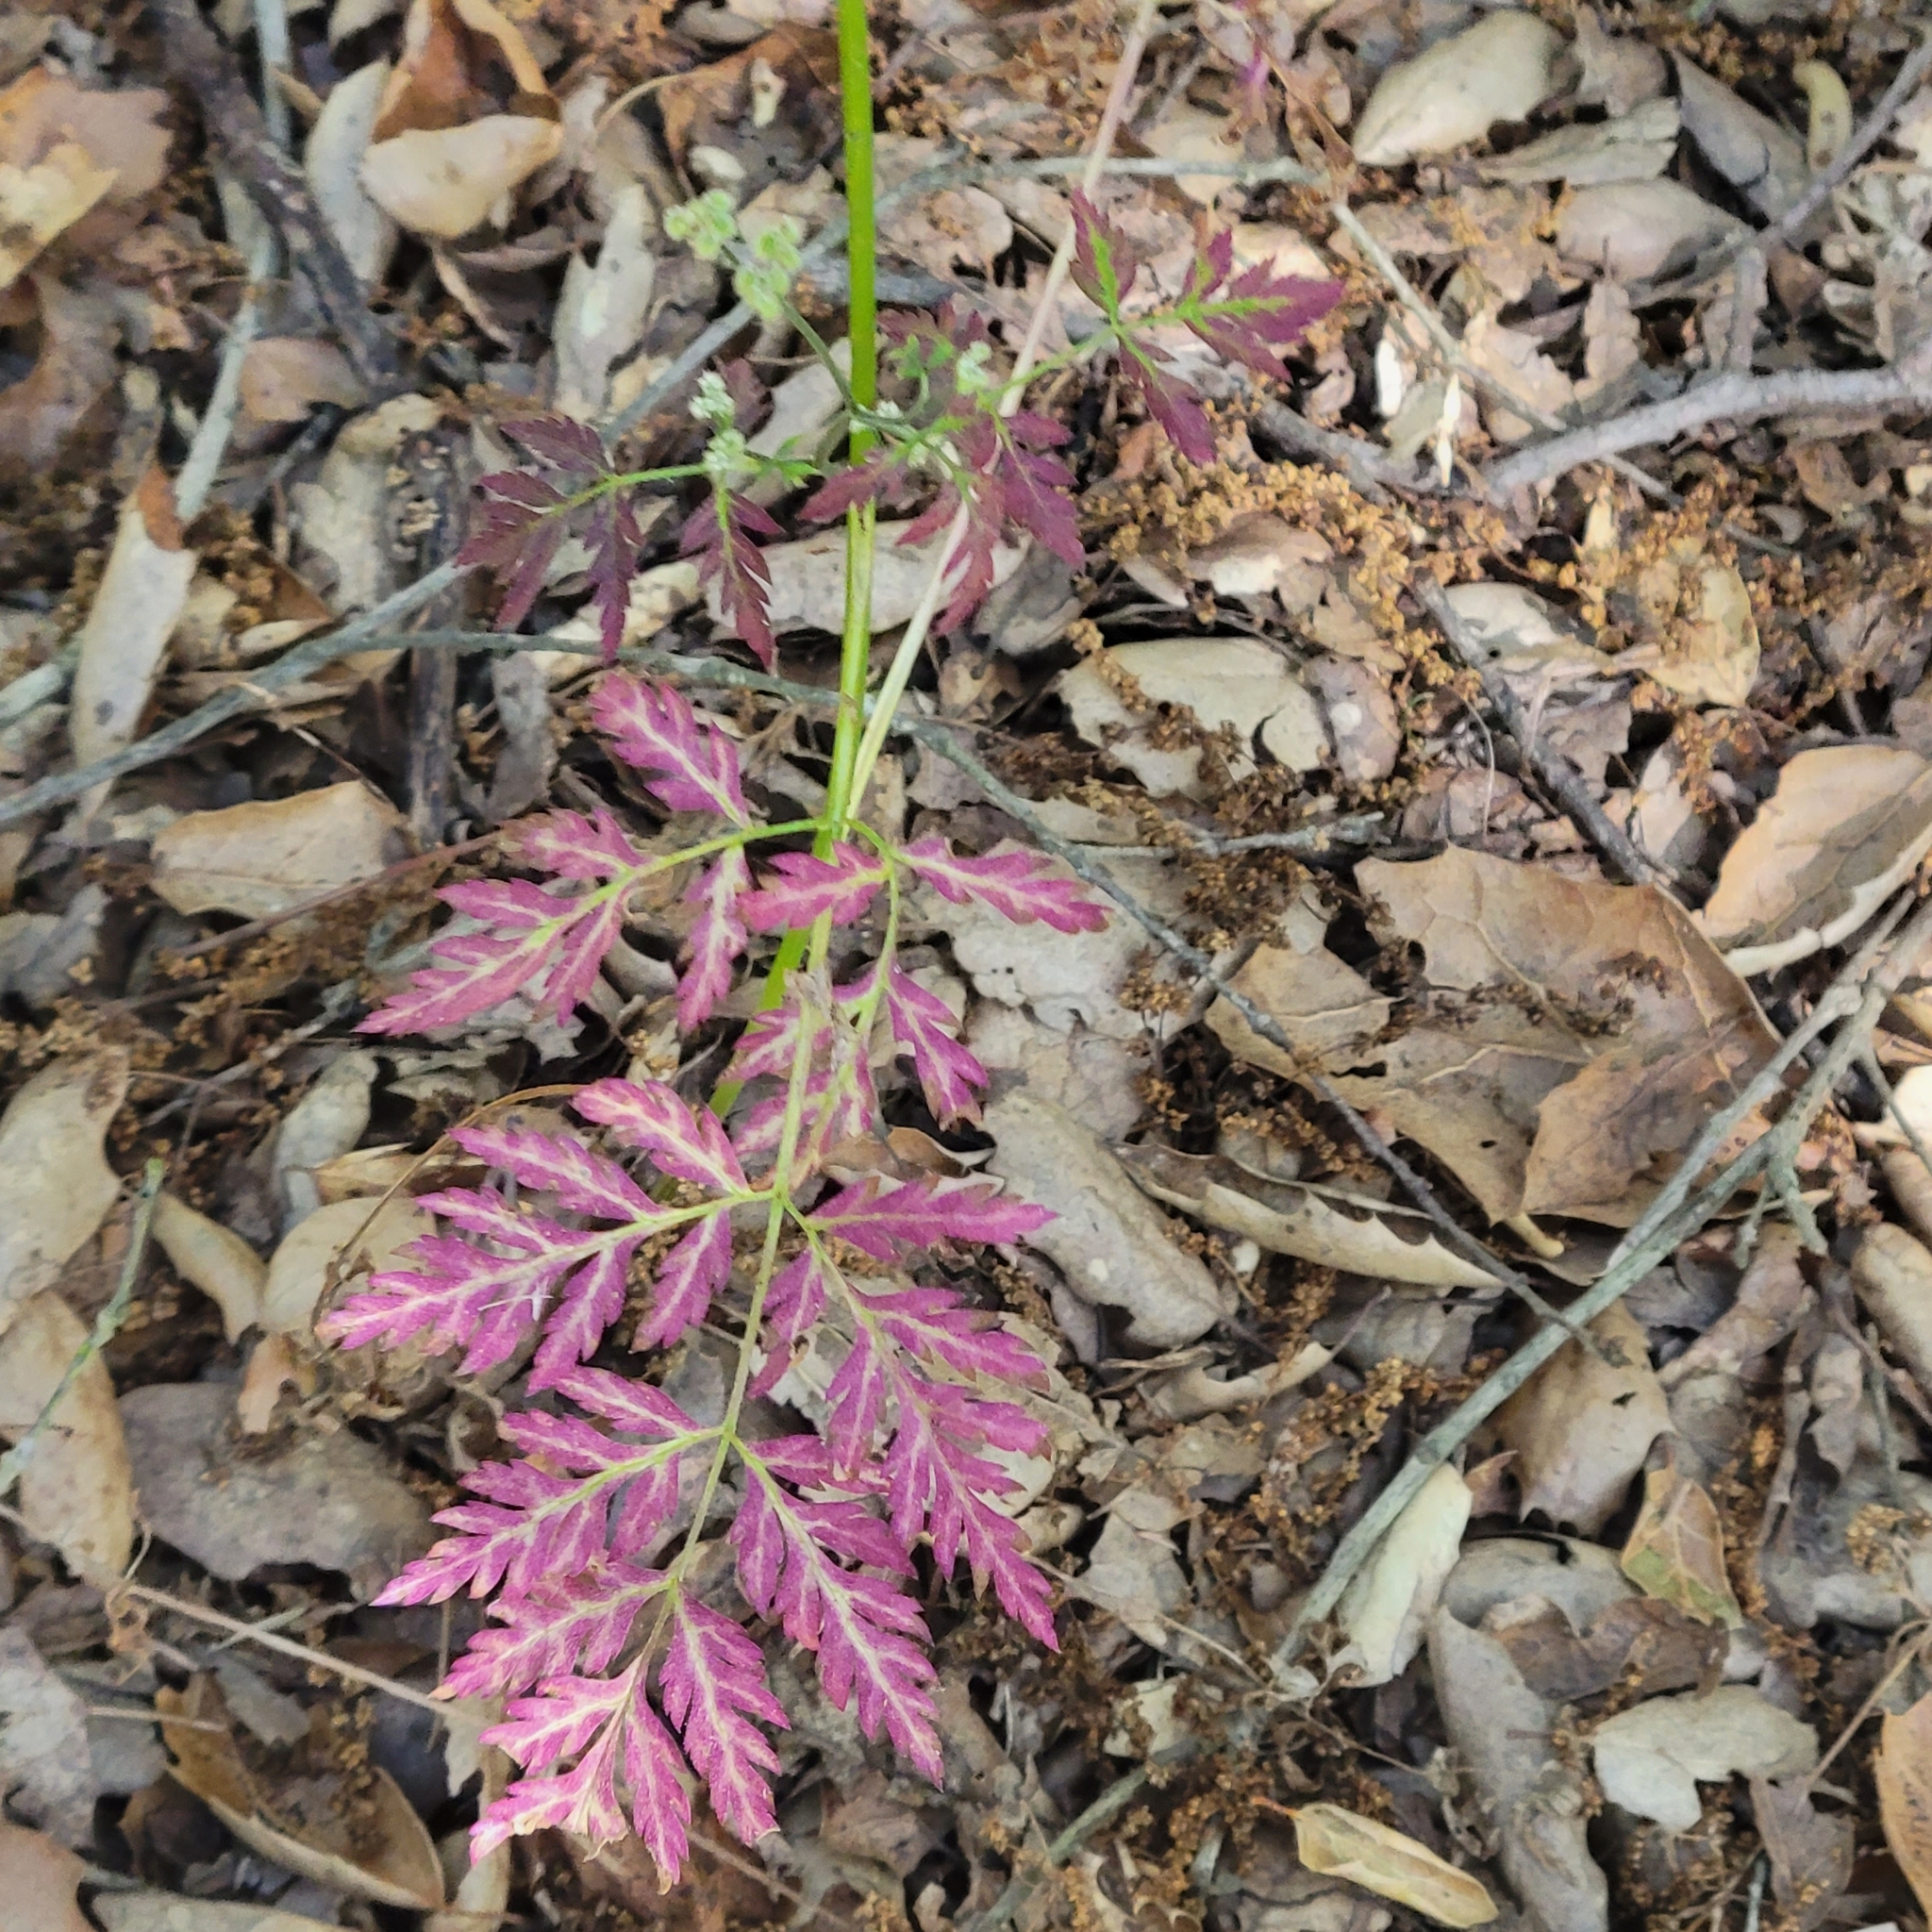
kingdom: Plantae
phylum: Tracheophyta
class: Magnoliopsida
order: Apiales
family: Apiaceae
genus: Torilis
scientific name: Torilis arvensis
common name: Spreading hedge-parsley
